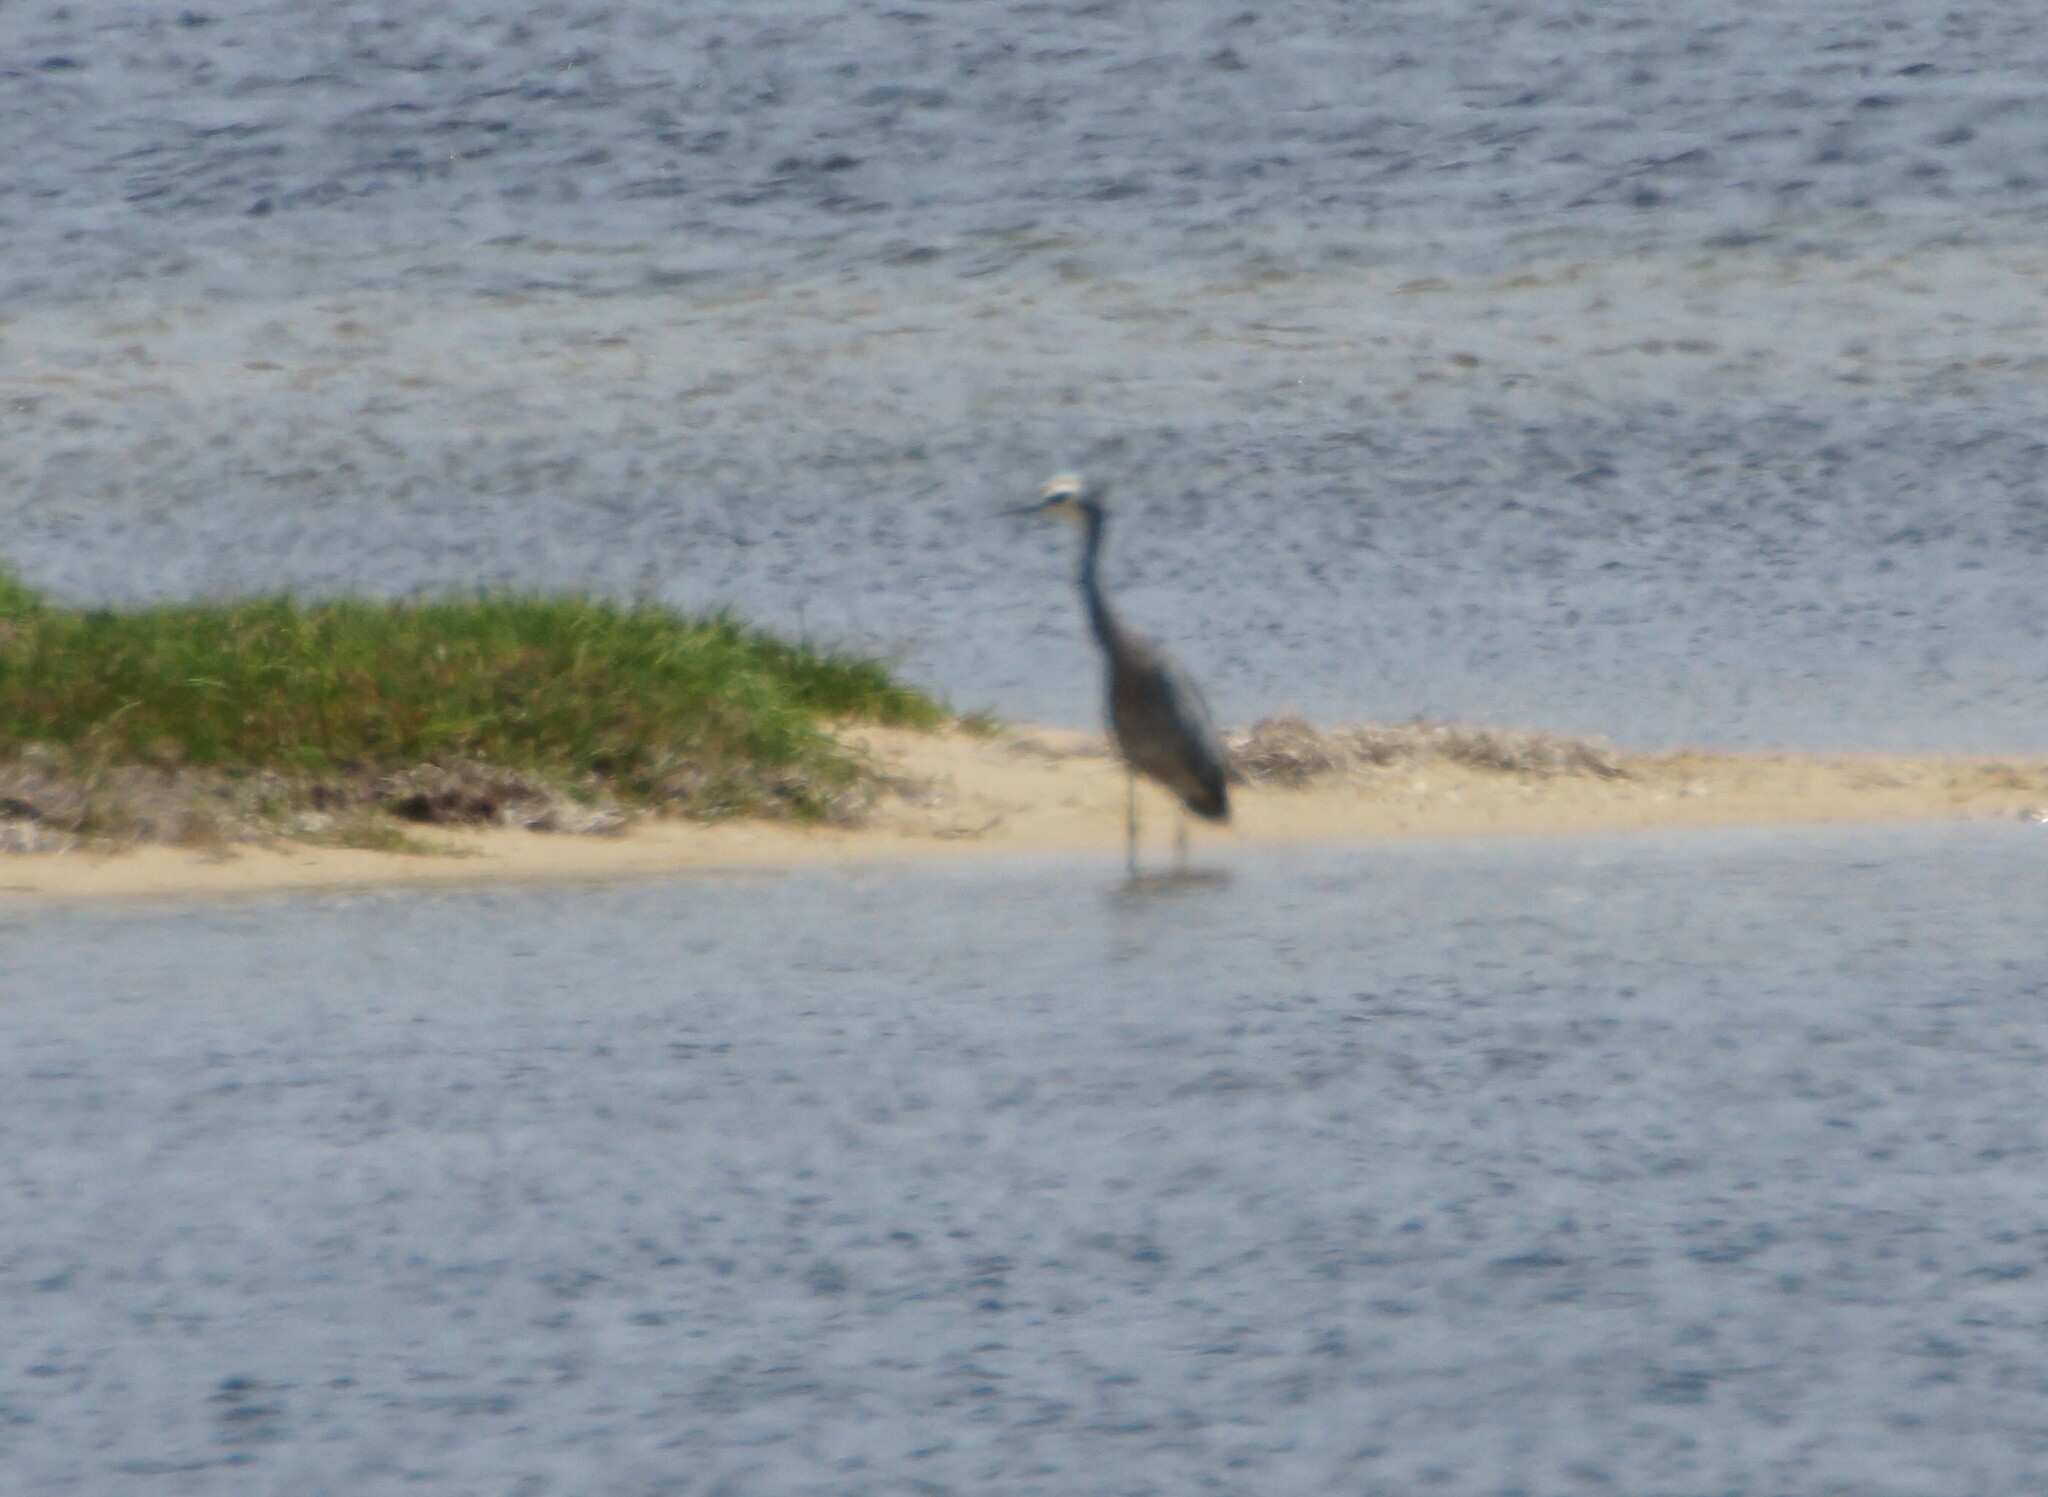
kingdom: Animalia
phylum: Chordata
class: Aves
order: Pelecaniformes
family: Ardeidae
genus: Egretta
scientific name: Egretta novaehollandiae
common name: White-faced heron
